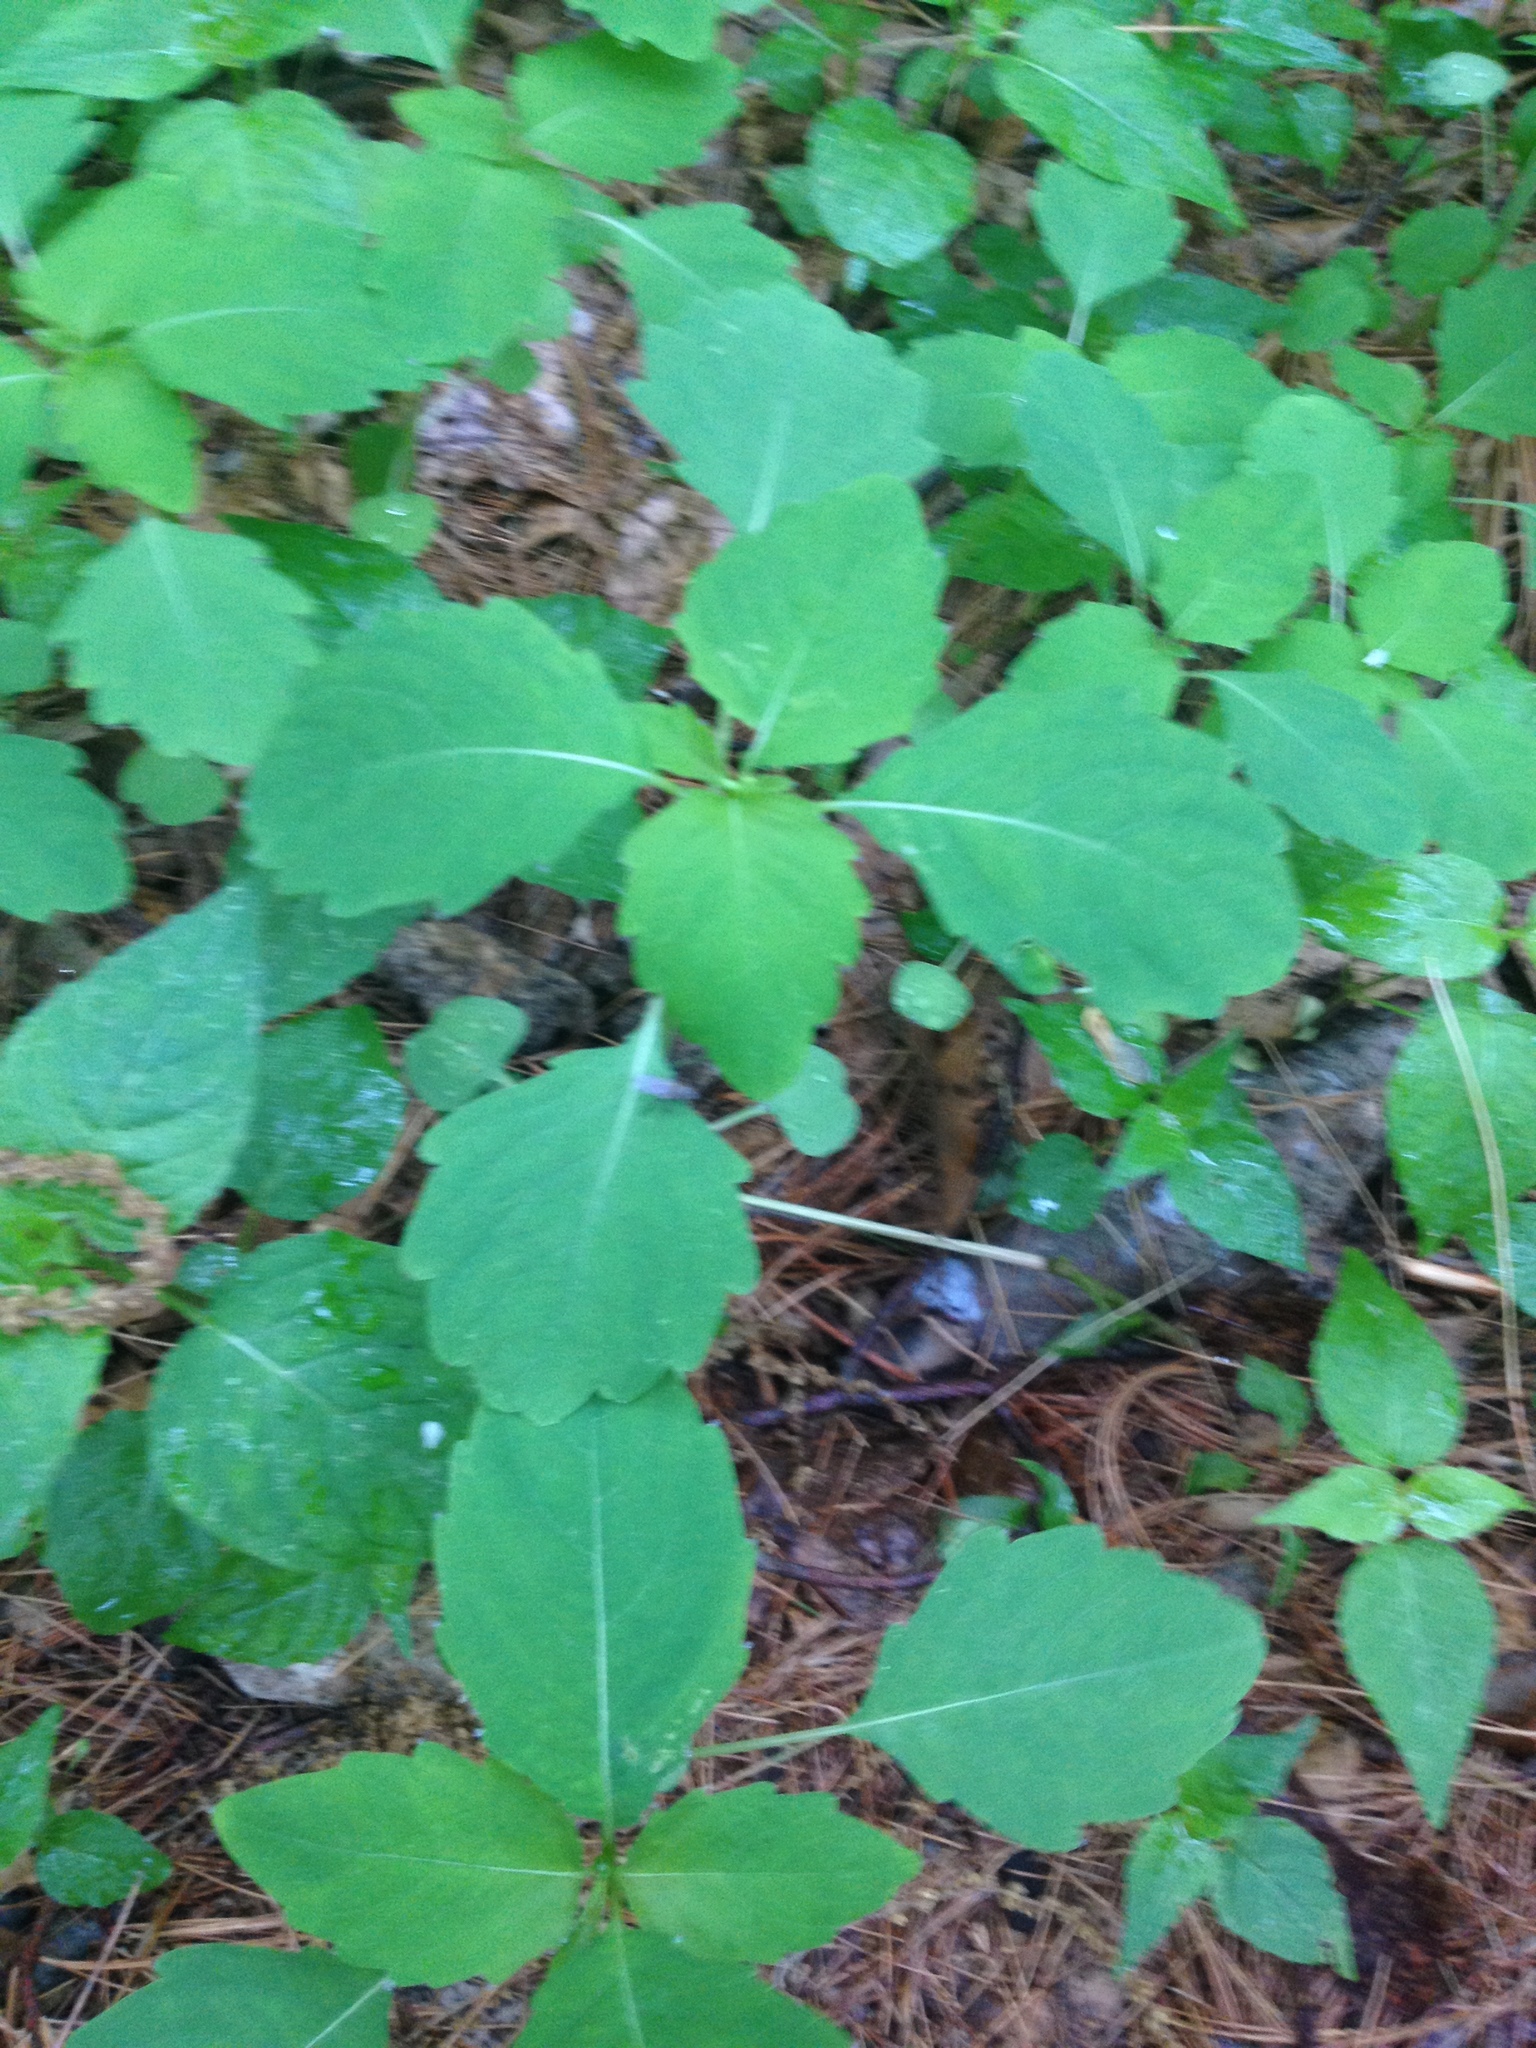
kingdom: Plantae
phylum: Tracheophyta
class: Magnoliopsida
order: Ericales
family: Balsaminaceae
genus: Impatiens
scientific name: Impatiens capensis
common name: Orange balsam
